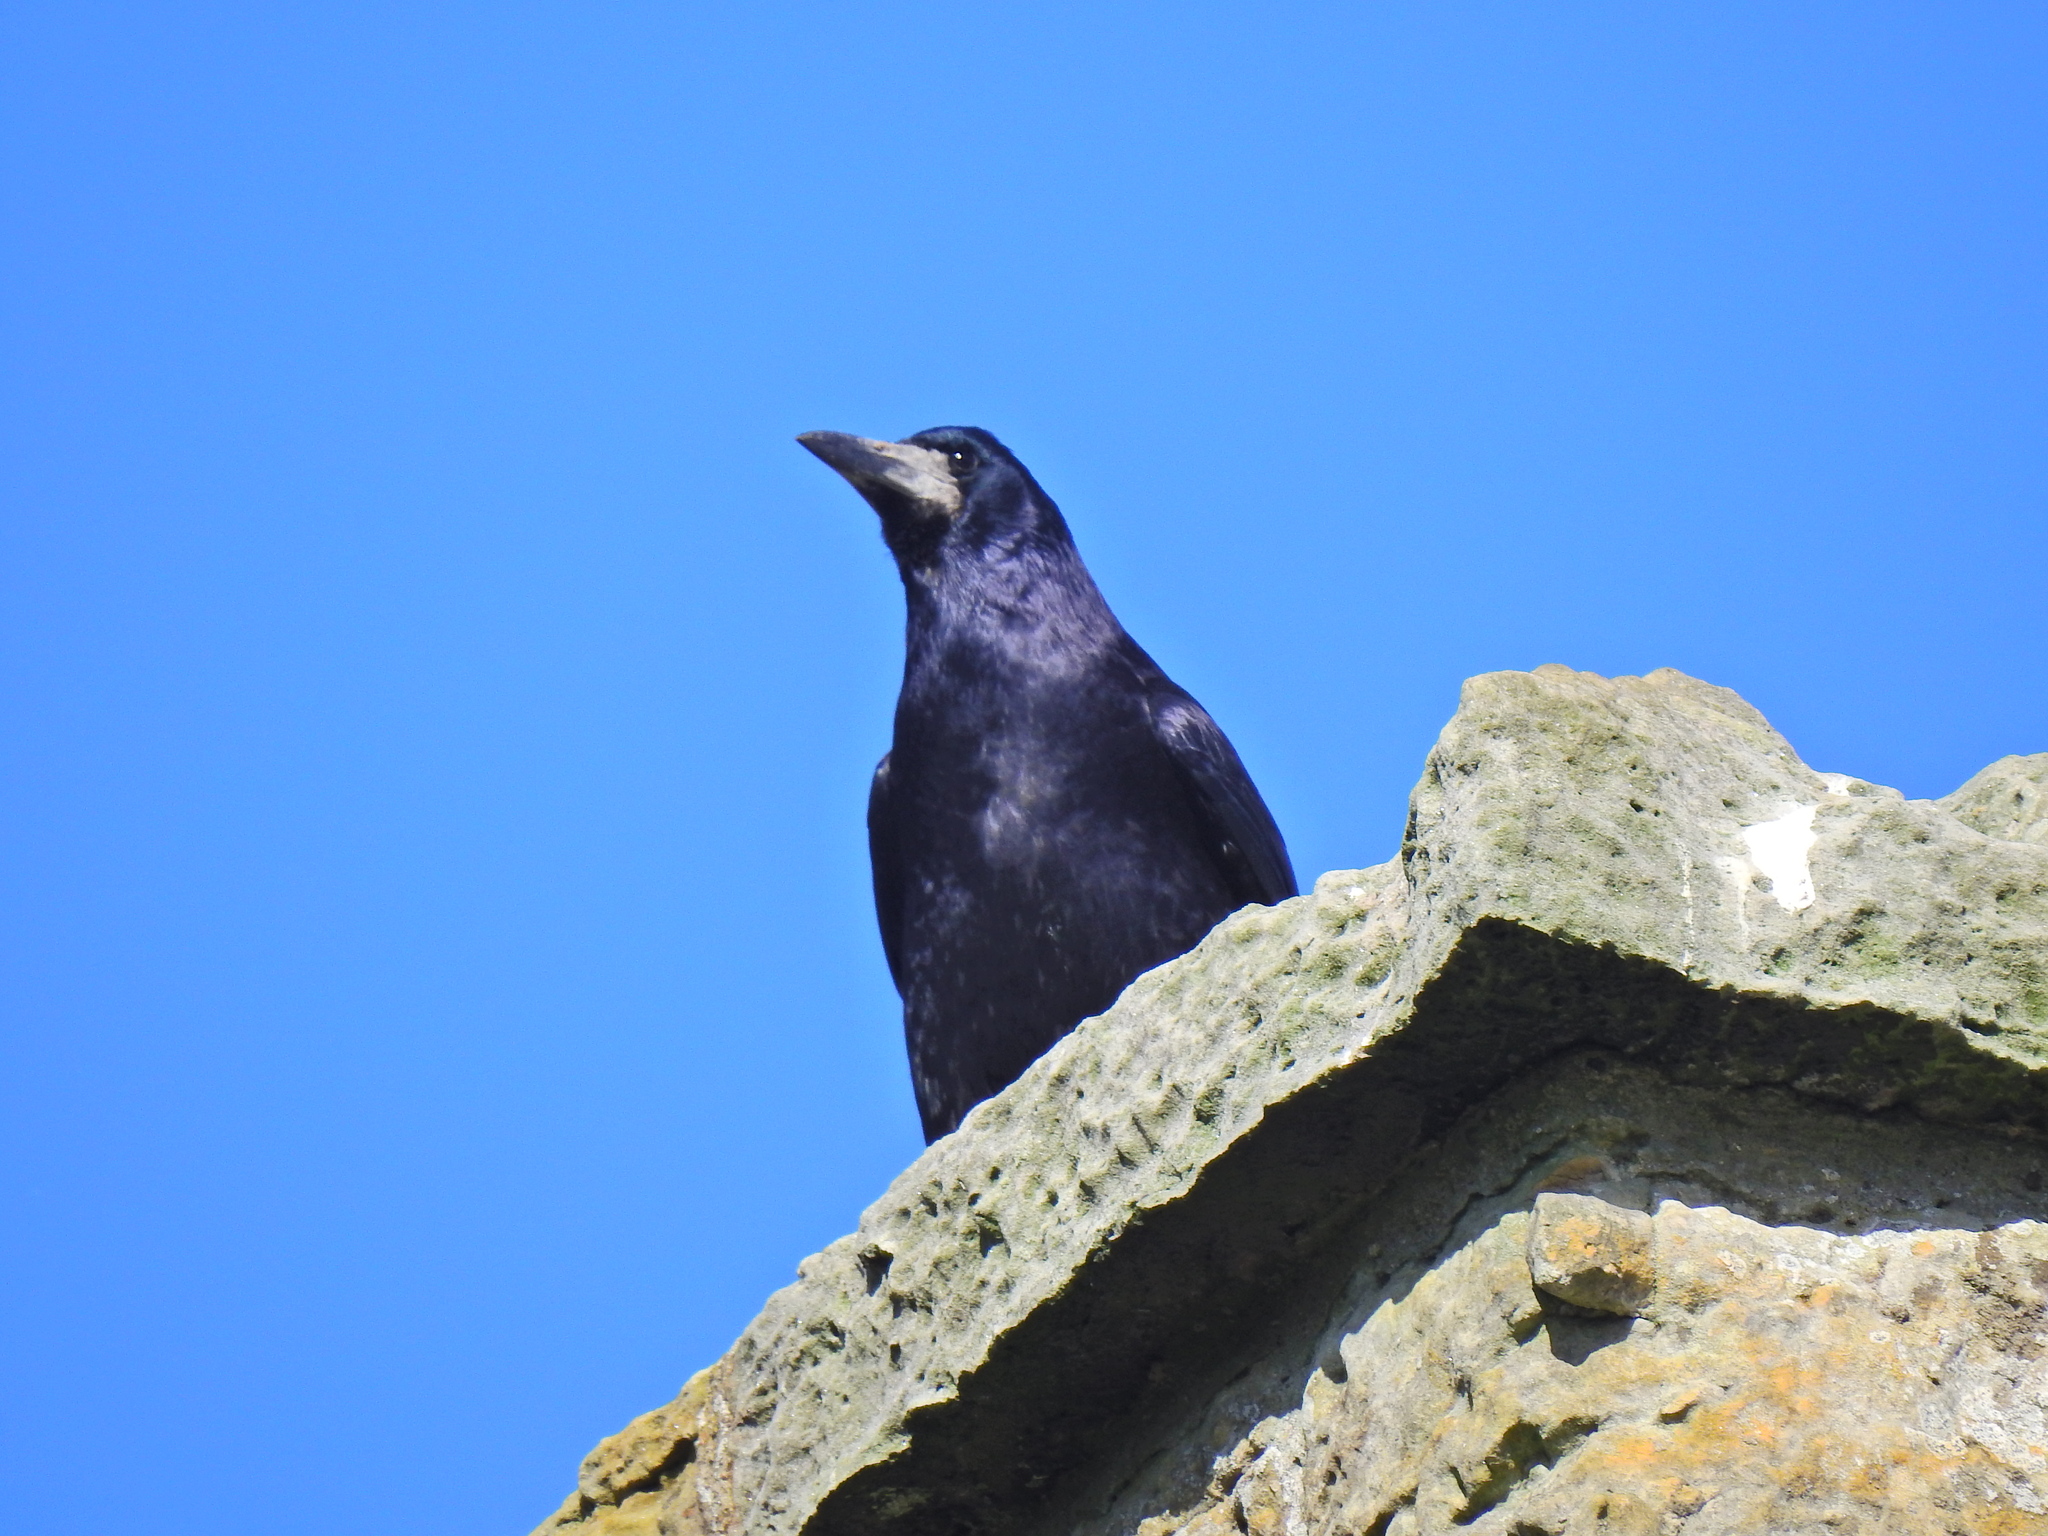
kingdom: Animalia
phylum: Chordata
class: Aves
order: Passeriformes
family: Corvidae
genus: Corvus
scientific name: Corvus frugilegus
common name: Rook
